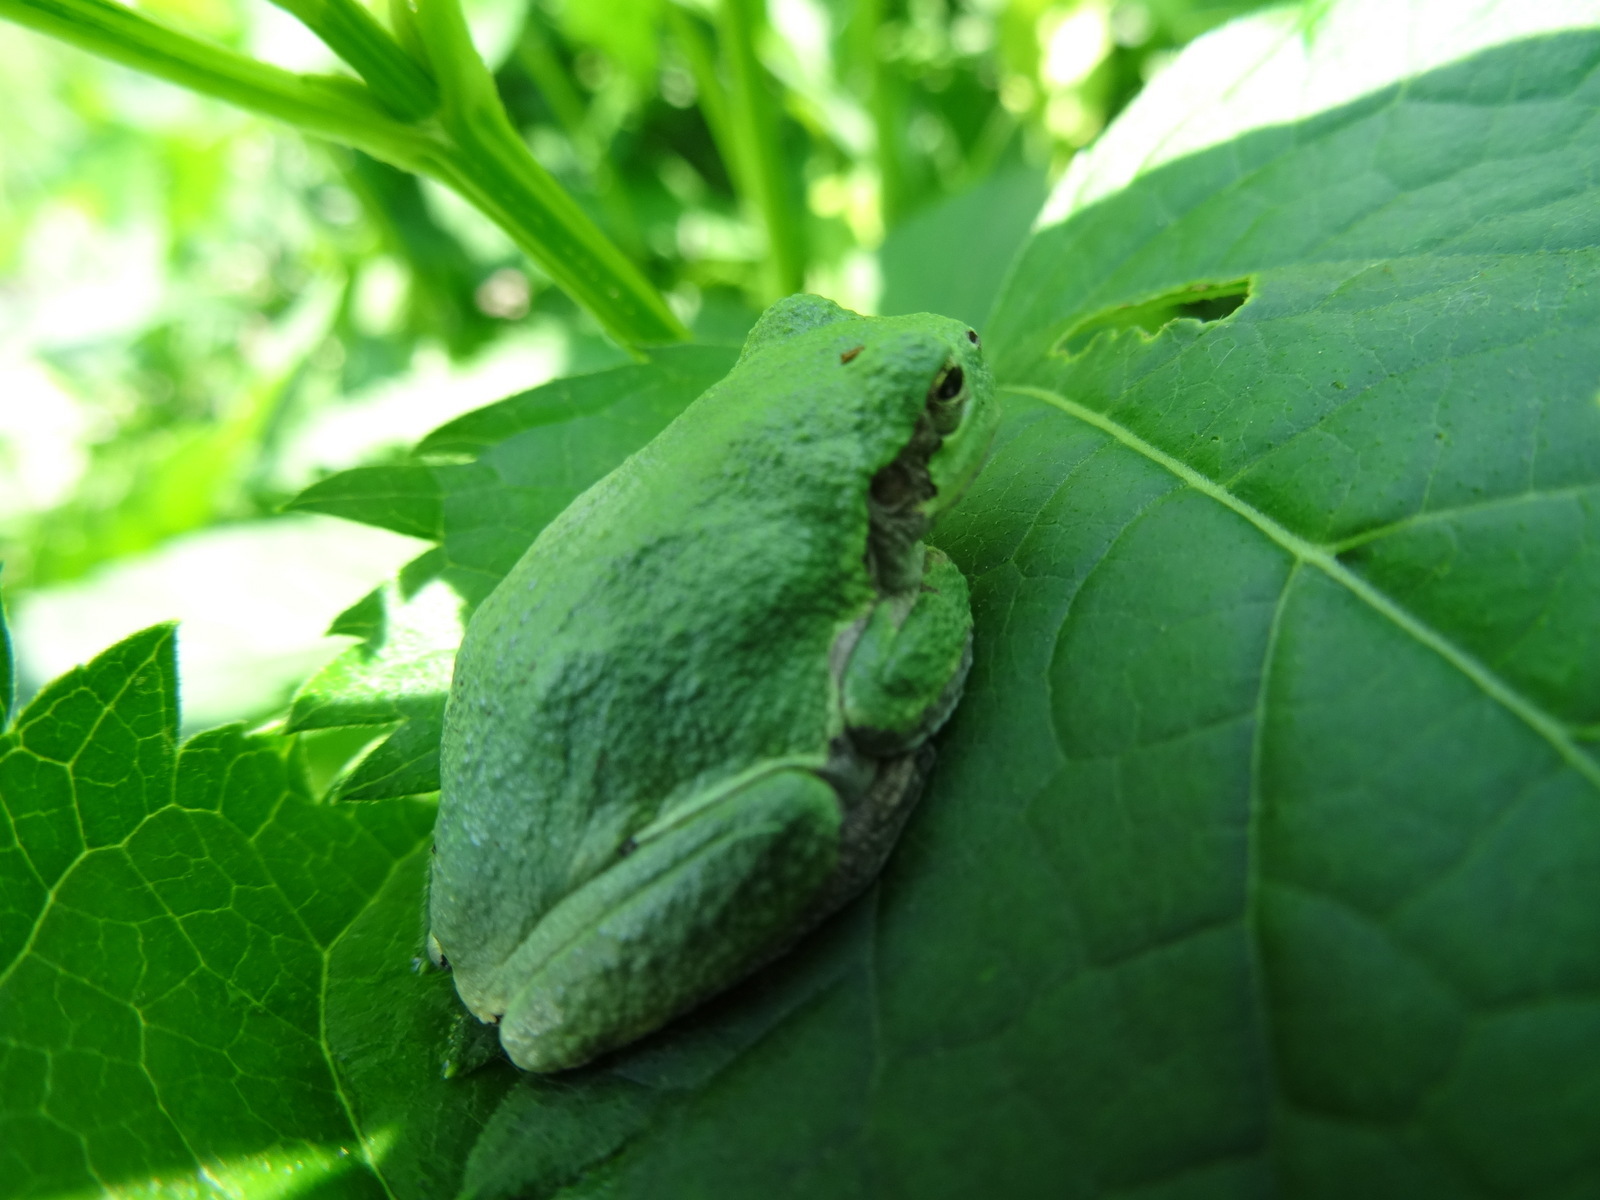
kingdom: Animalia
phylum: Chordata
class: Amphibia
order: Anura
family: Hylidae
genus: Dryophytes
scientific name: Dryophytes versicolor
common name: Gray treefrog
